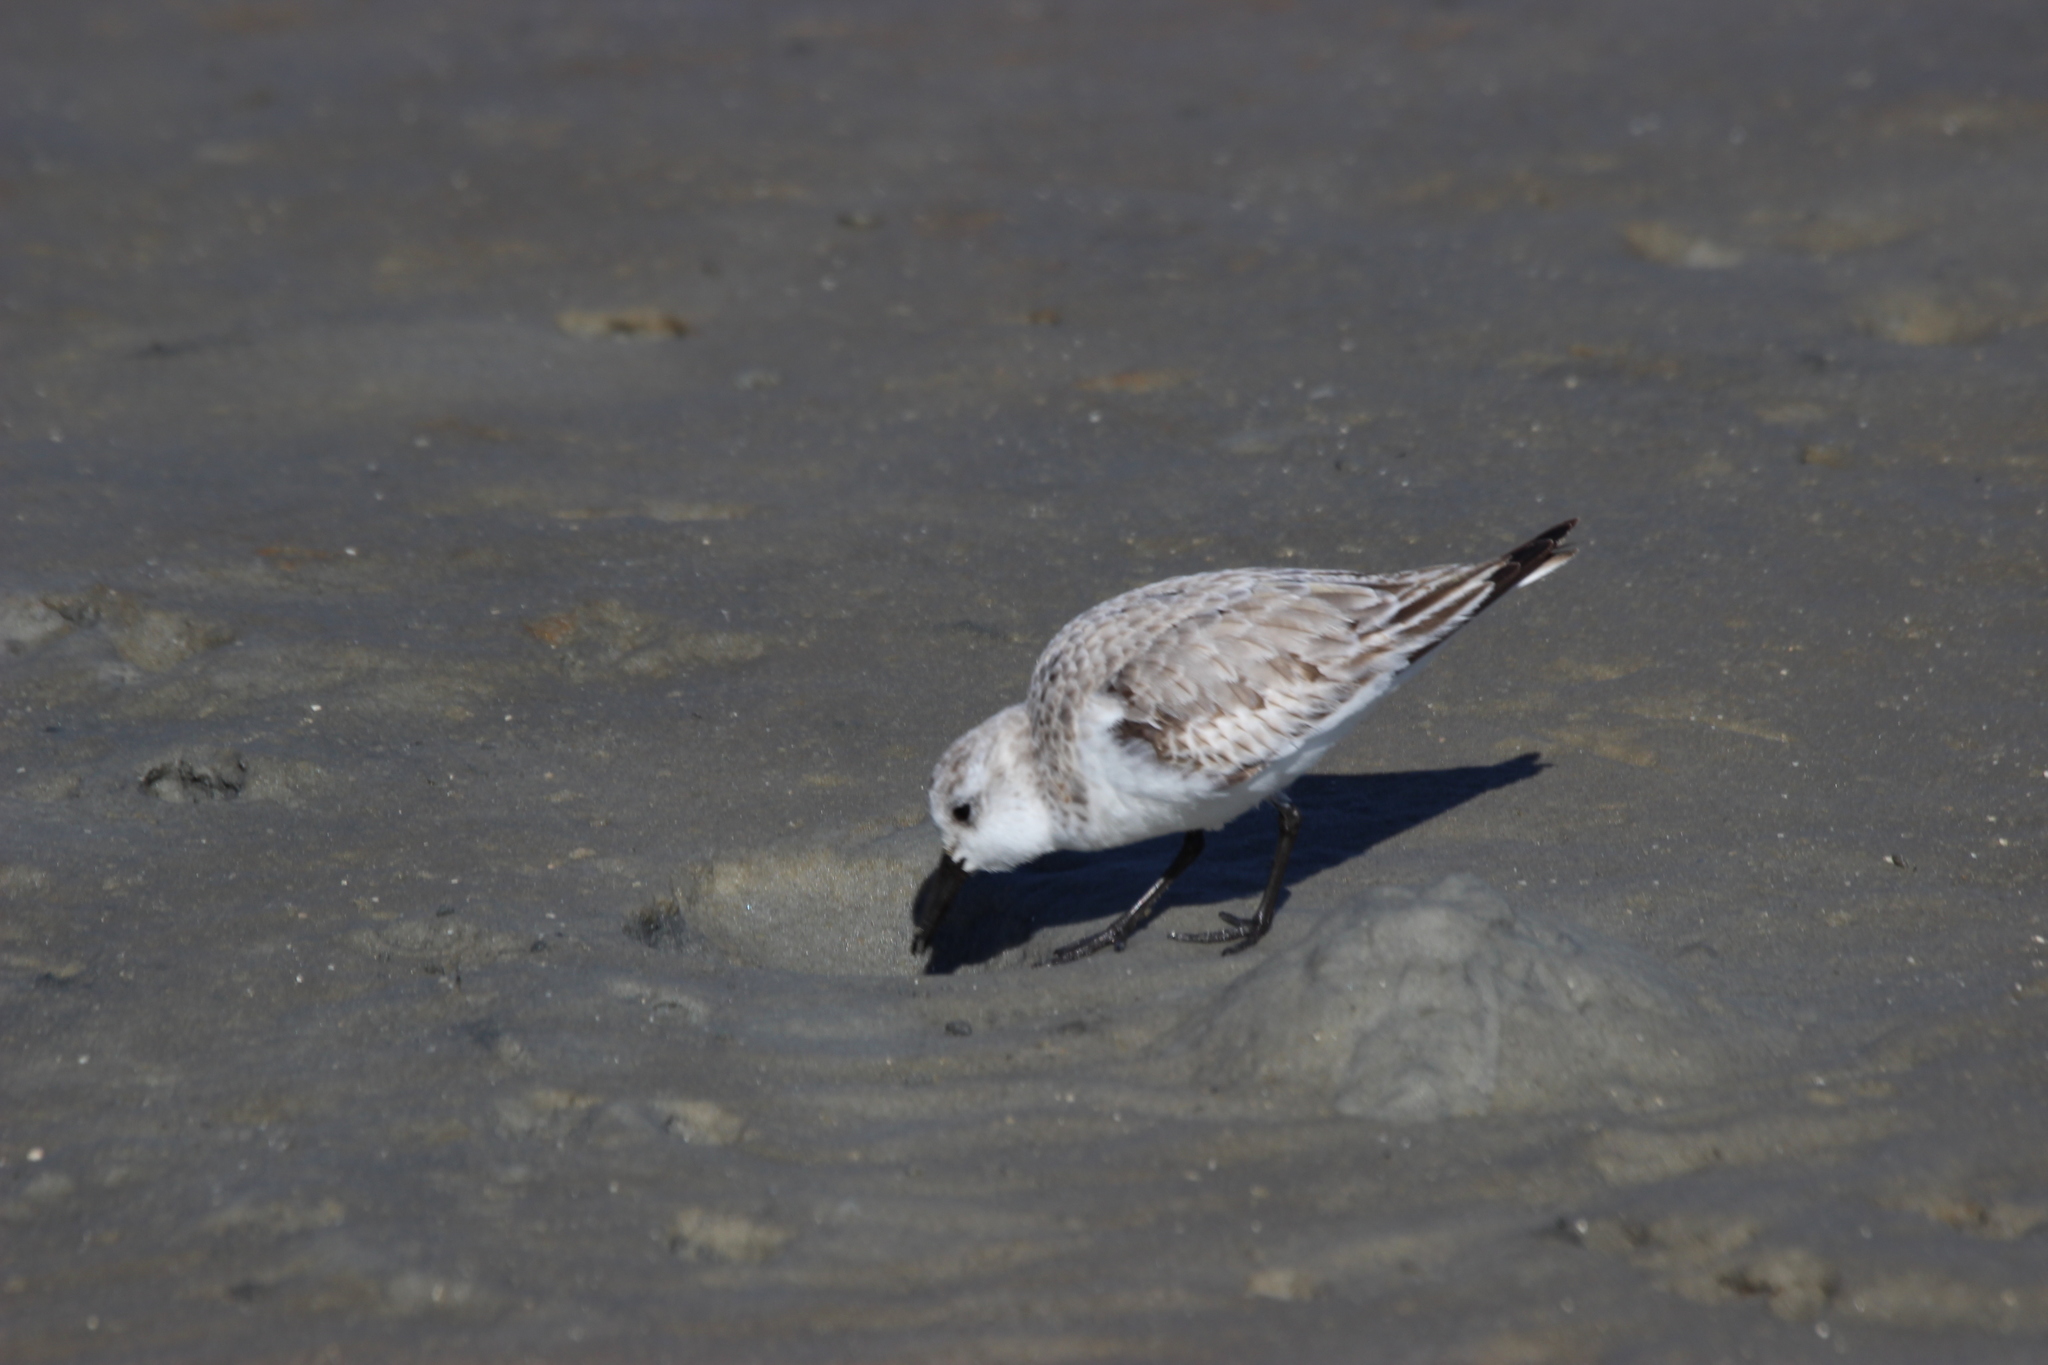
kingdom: Animalia
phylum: Chordata
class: Aves
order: Charadriiformes
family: Scolopacidae
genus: Calidris
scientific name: Calidris alba
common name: Sanderling
